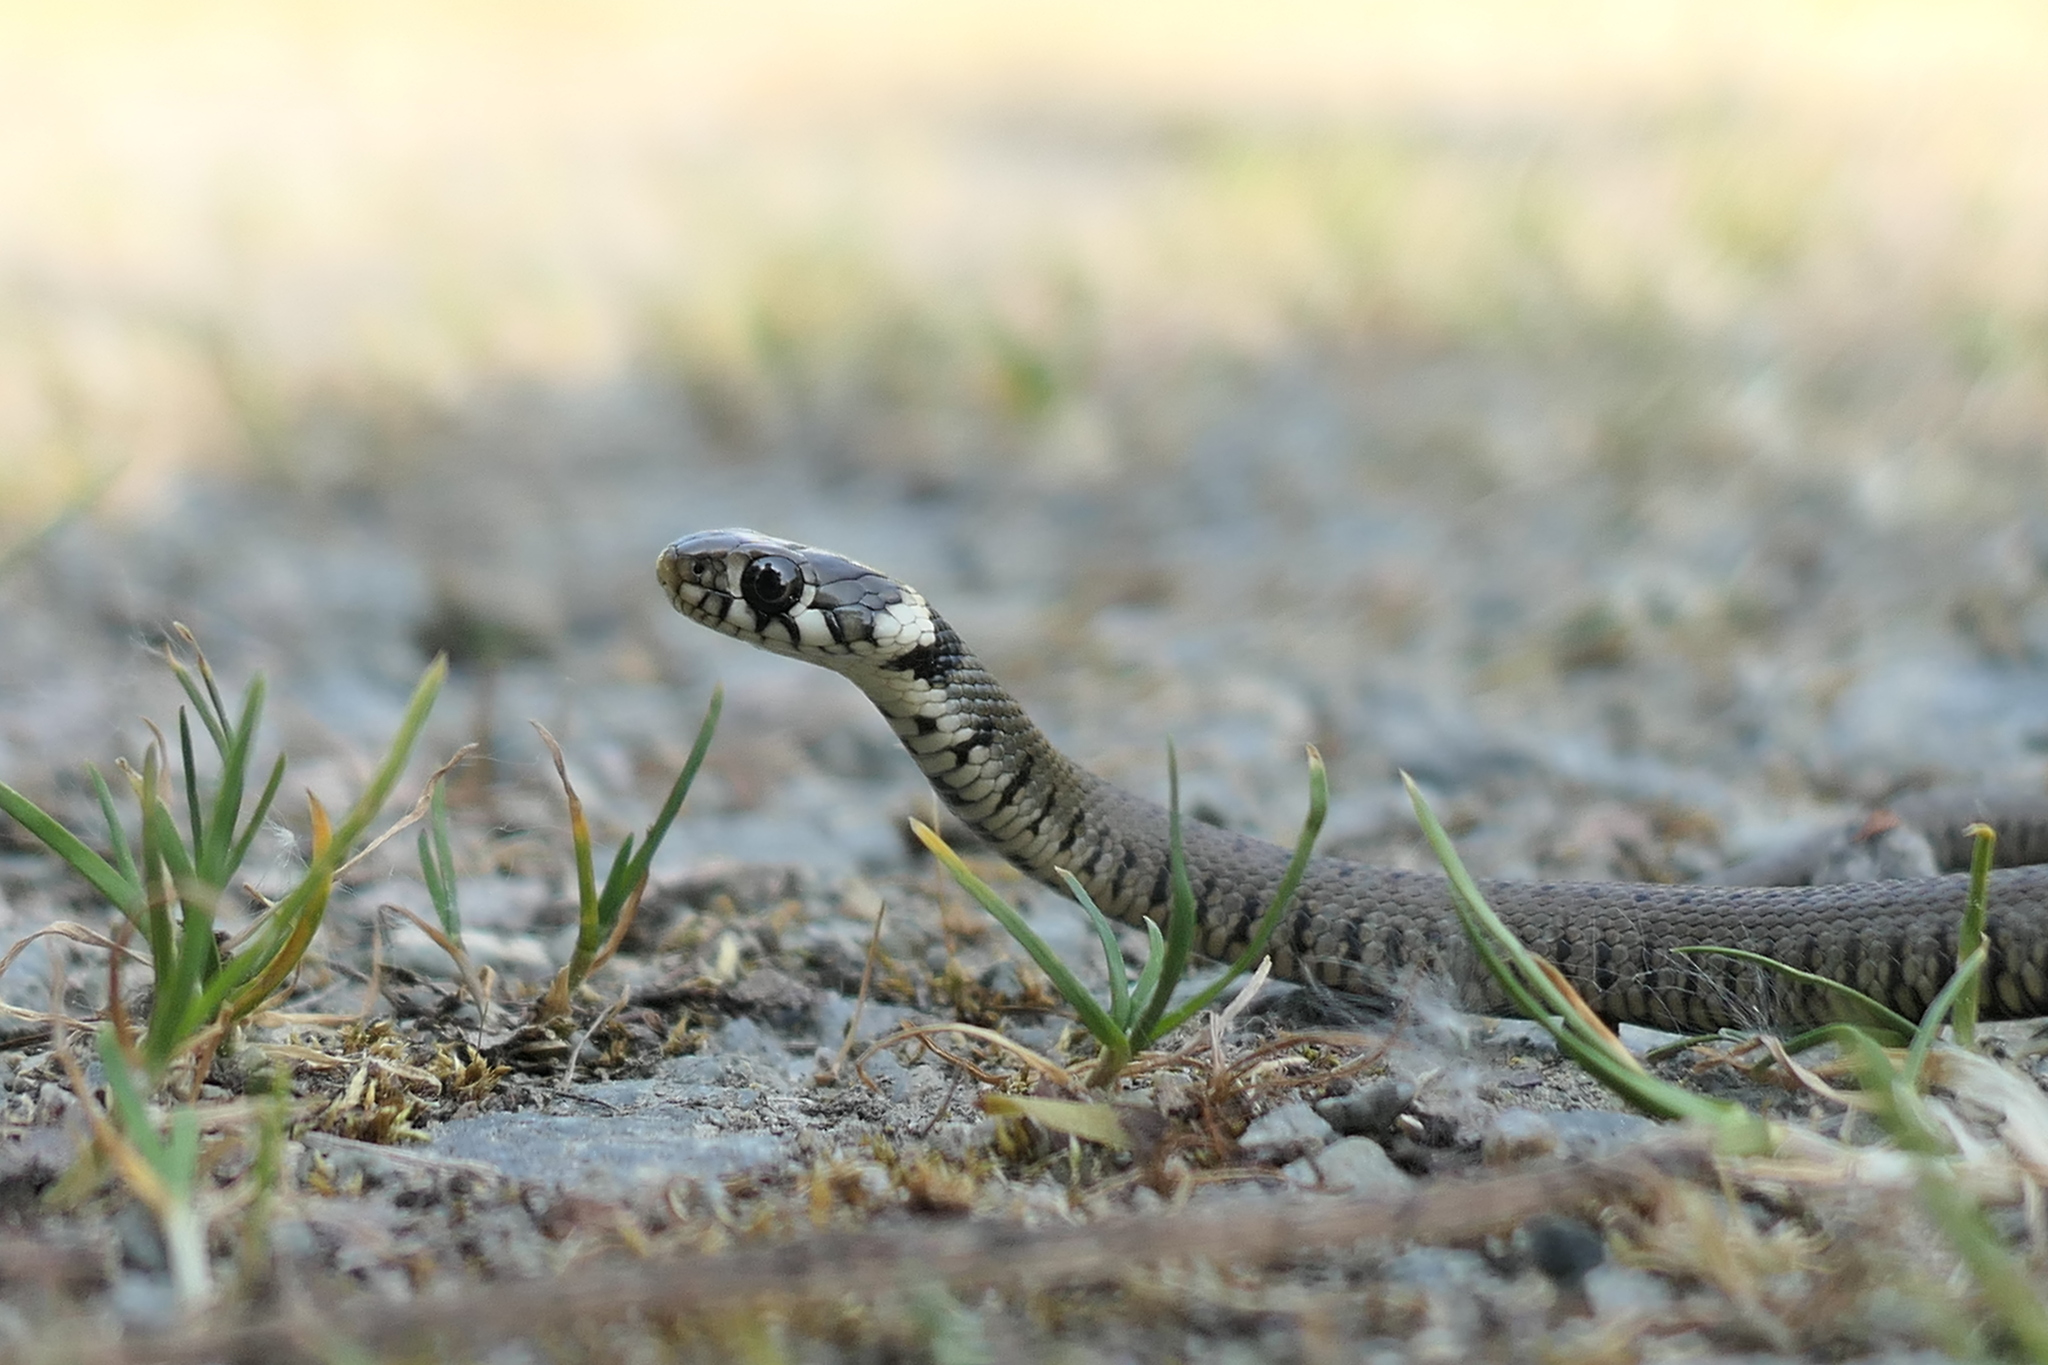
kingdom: Animalia
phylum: Chordata
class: Squamata
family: Colubridae
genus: Natrix
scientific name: Natrix helvetica
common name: Banded grass snake
